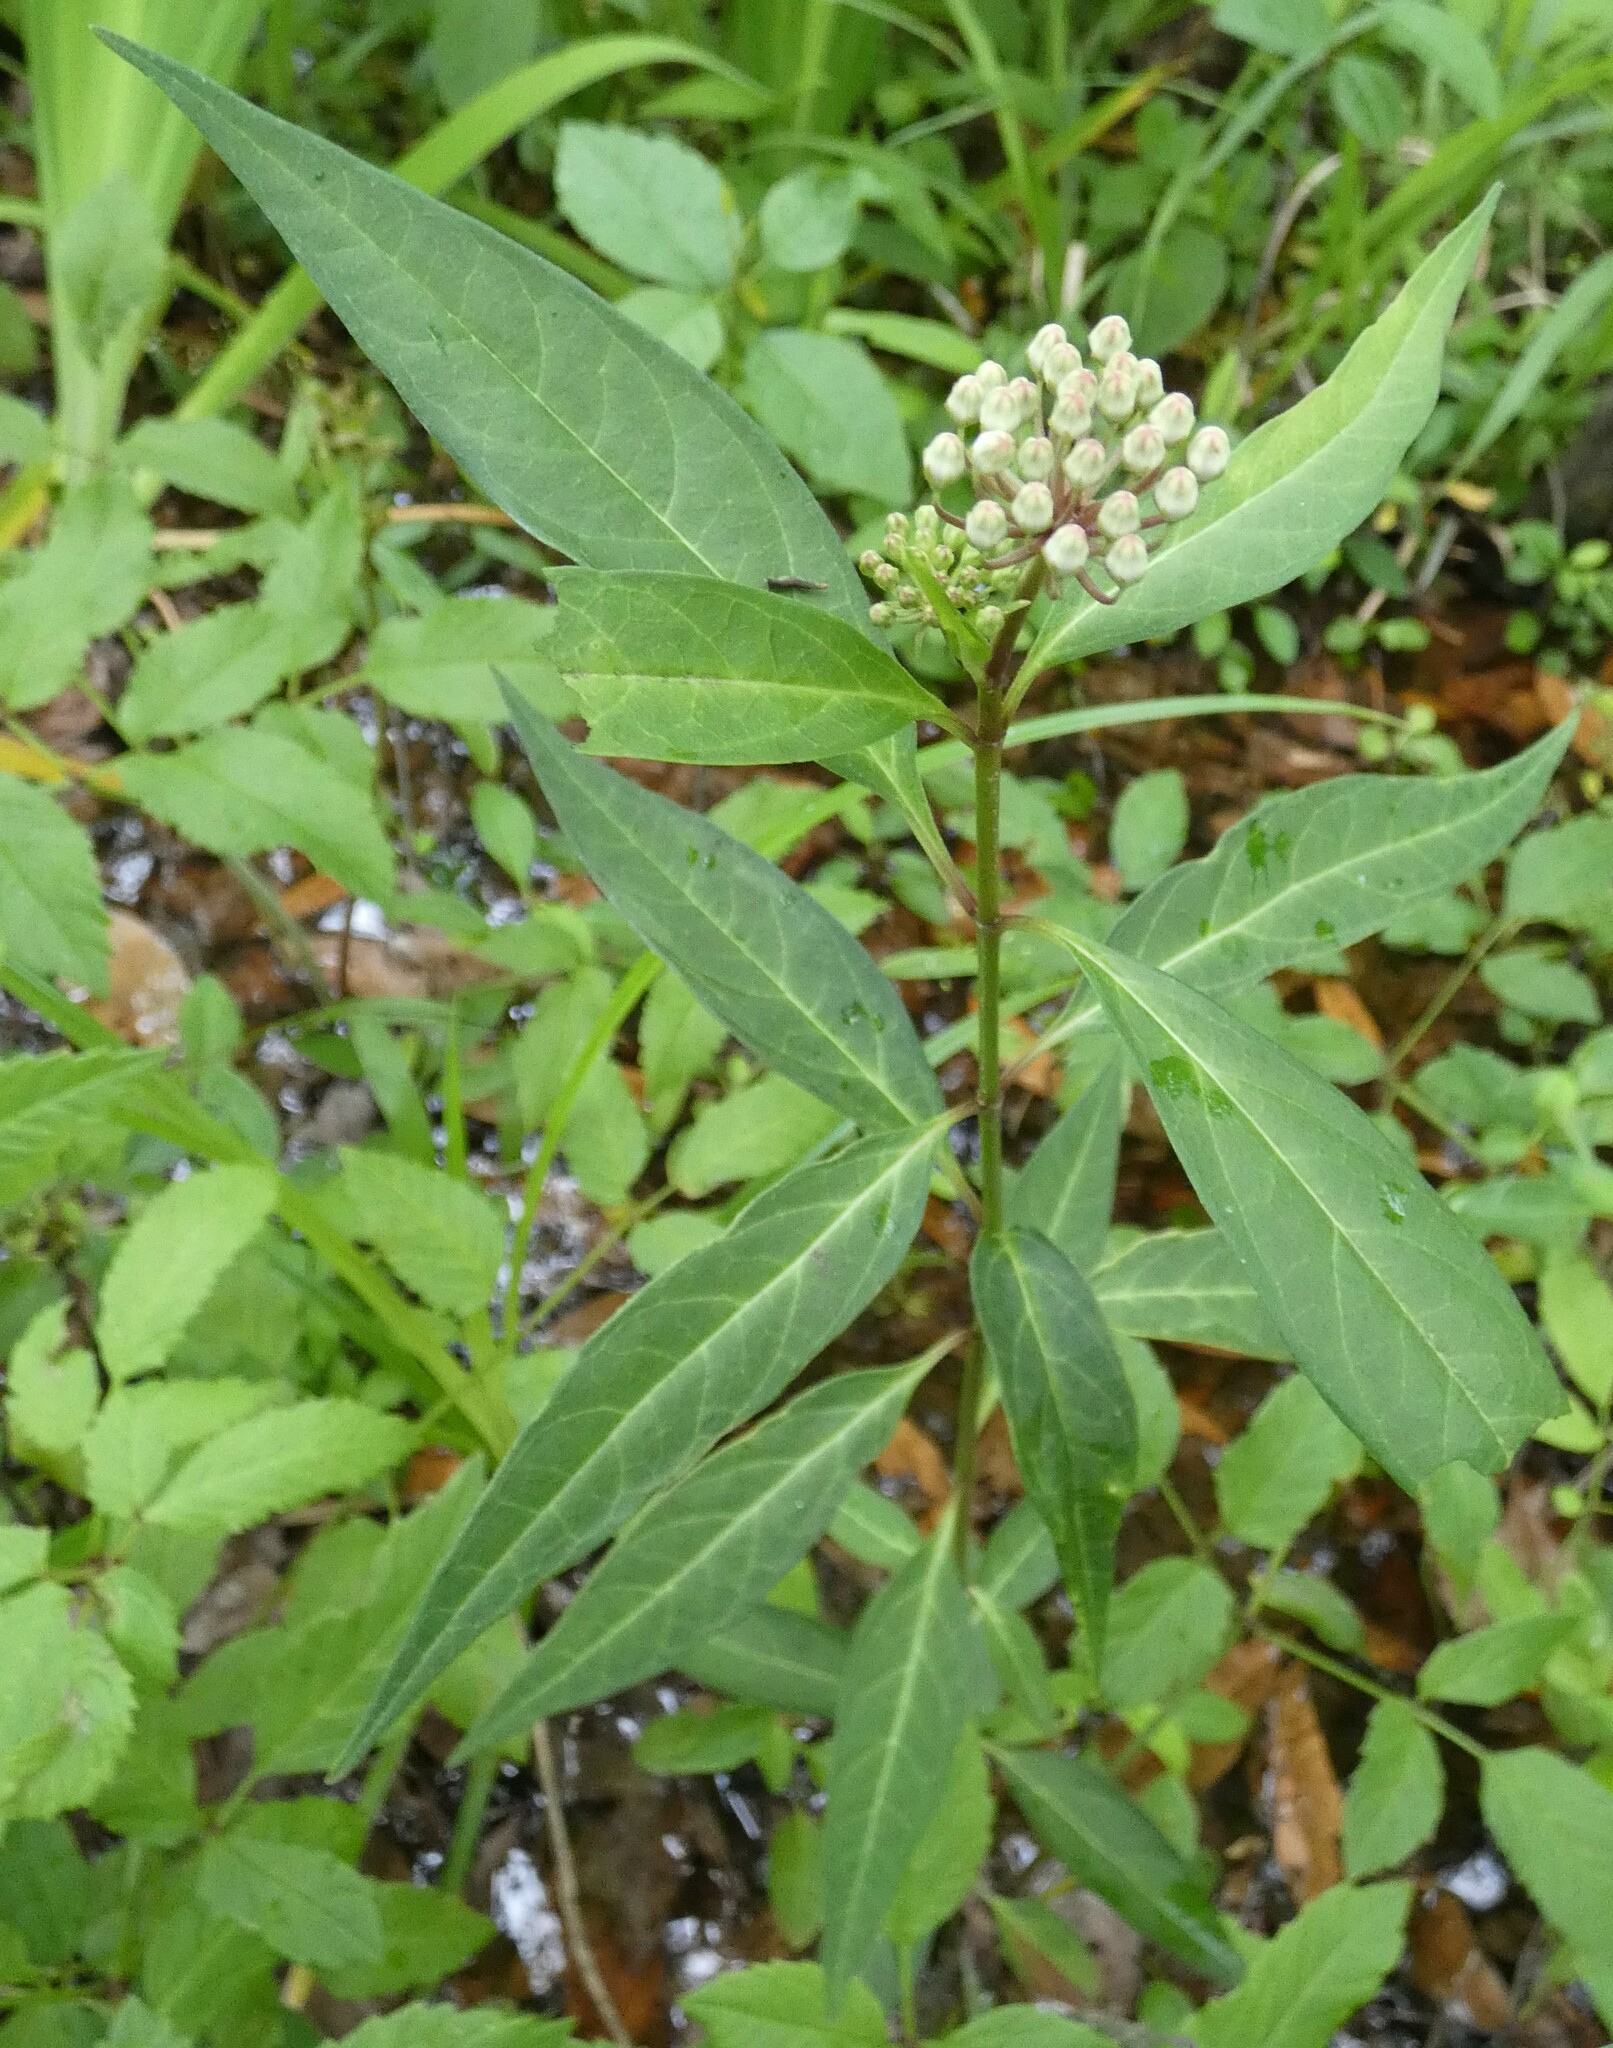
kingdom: Plantae
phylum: Tracheophyta
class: Magnoliopsida
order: Gentianales
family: Apocynaceae
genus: Asclepias
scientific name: Asclepias perennis
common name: Smooth-seed milkweed
